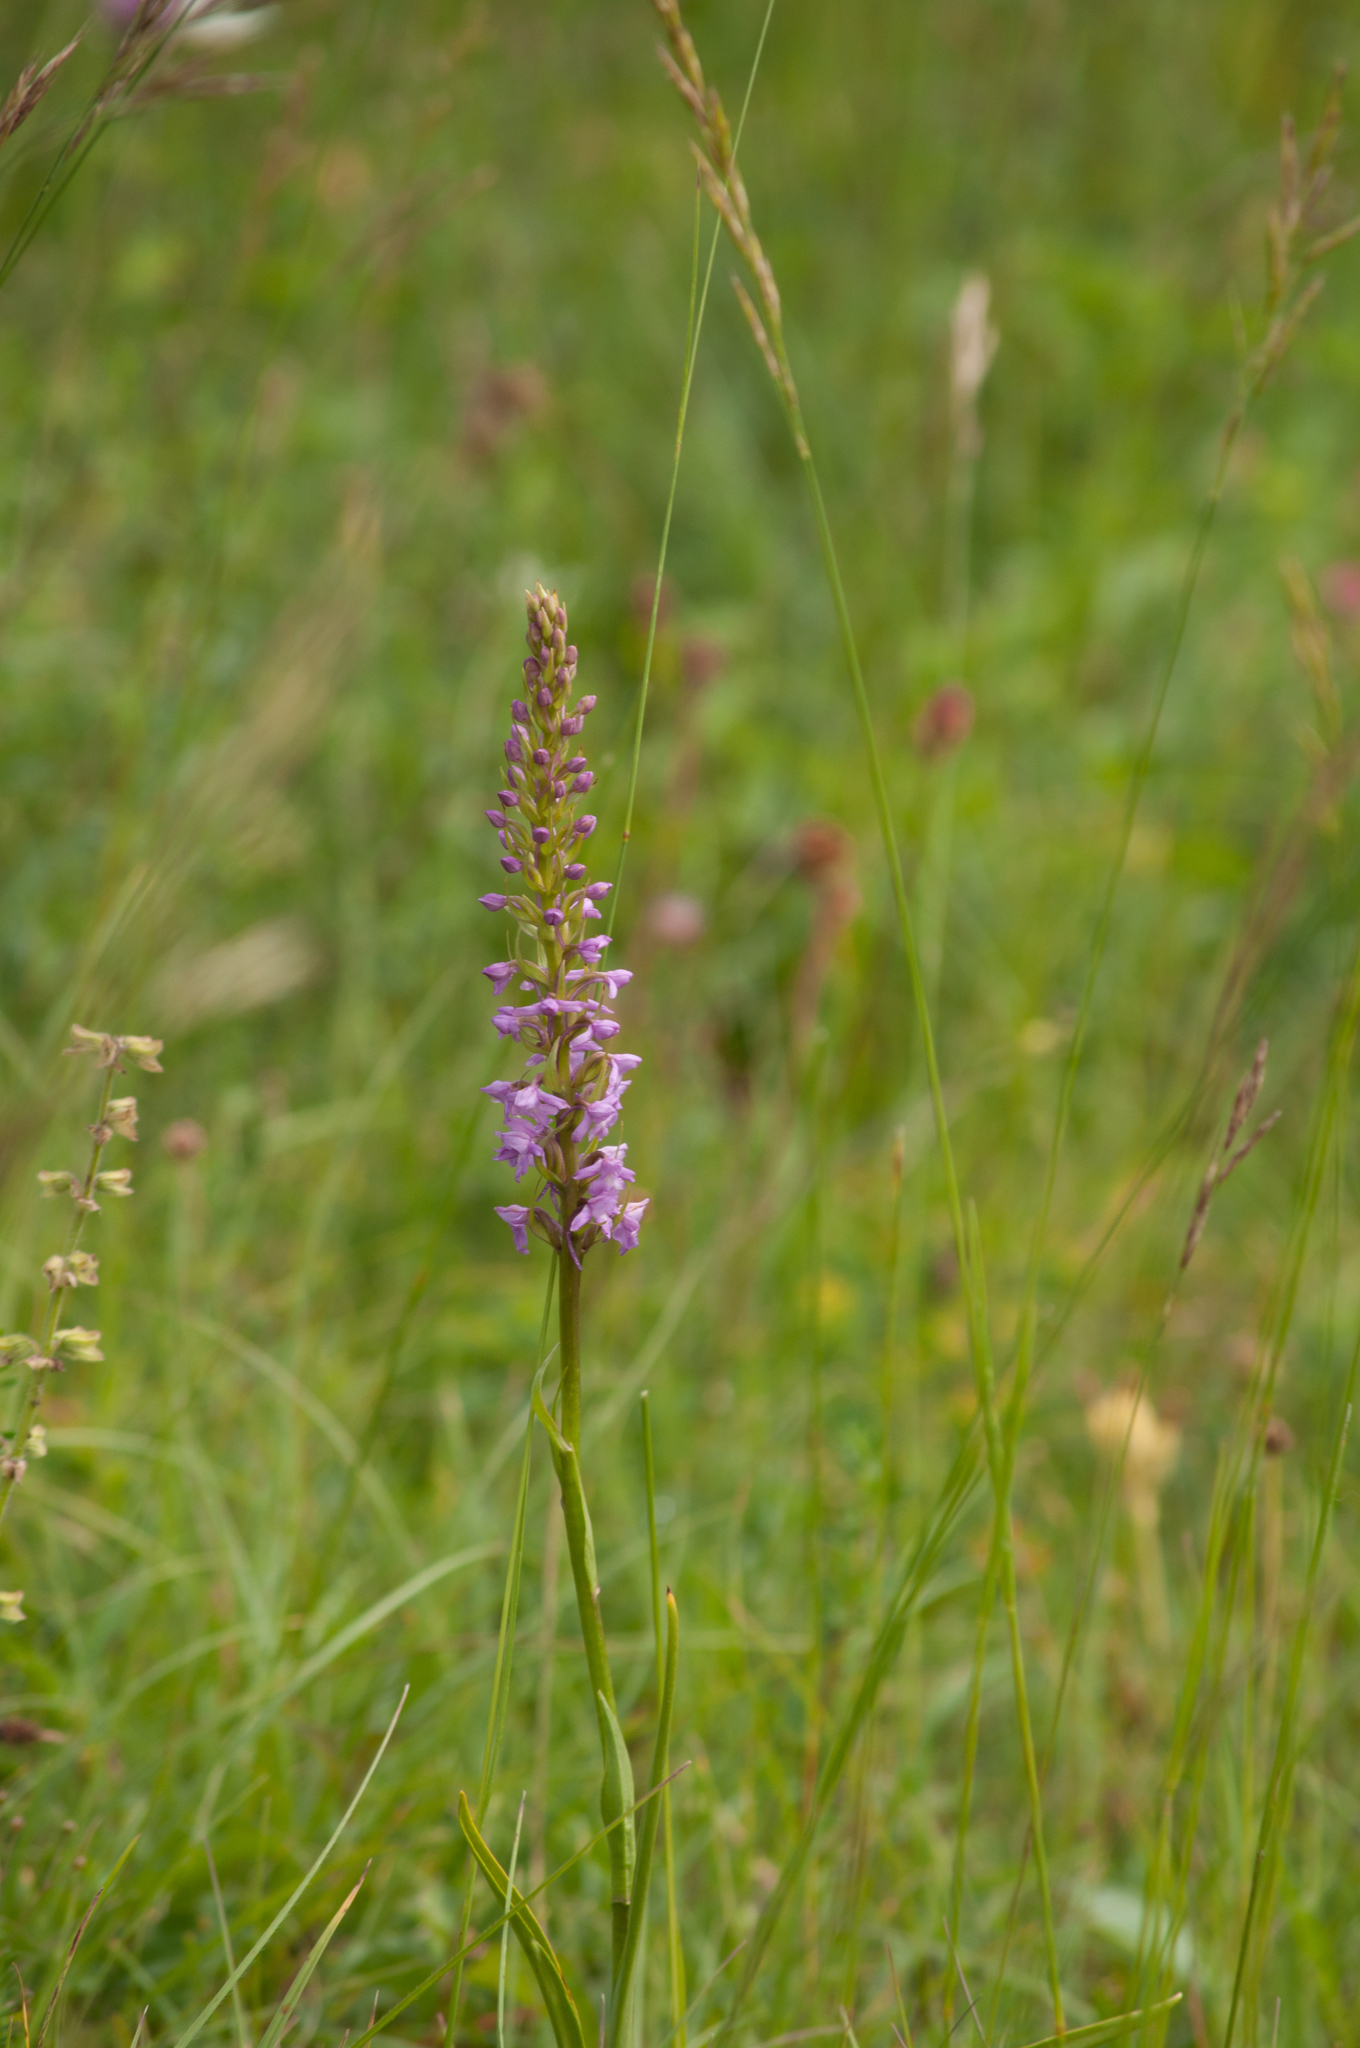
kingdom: Plantae
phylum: Tracheophyta
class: Liliopsida
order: Asparagales
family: Orchidaceae
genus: Gymnadenia
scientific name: Gymnadenia conopsea
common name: Fragrant orchid
